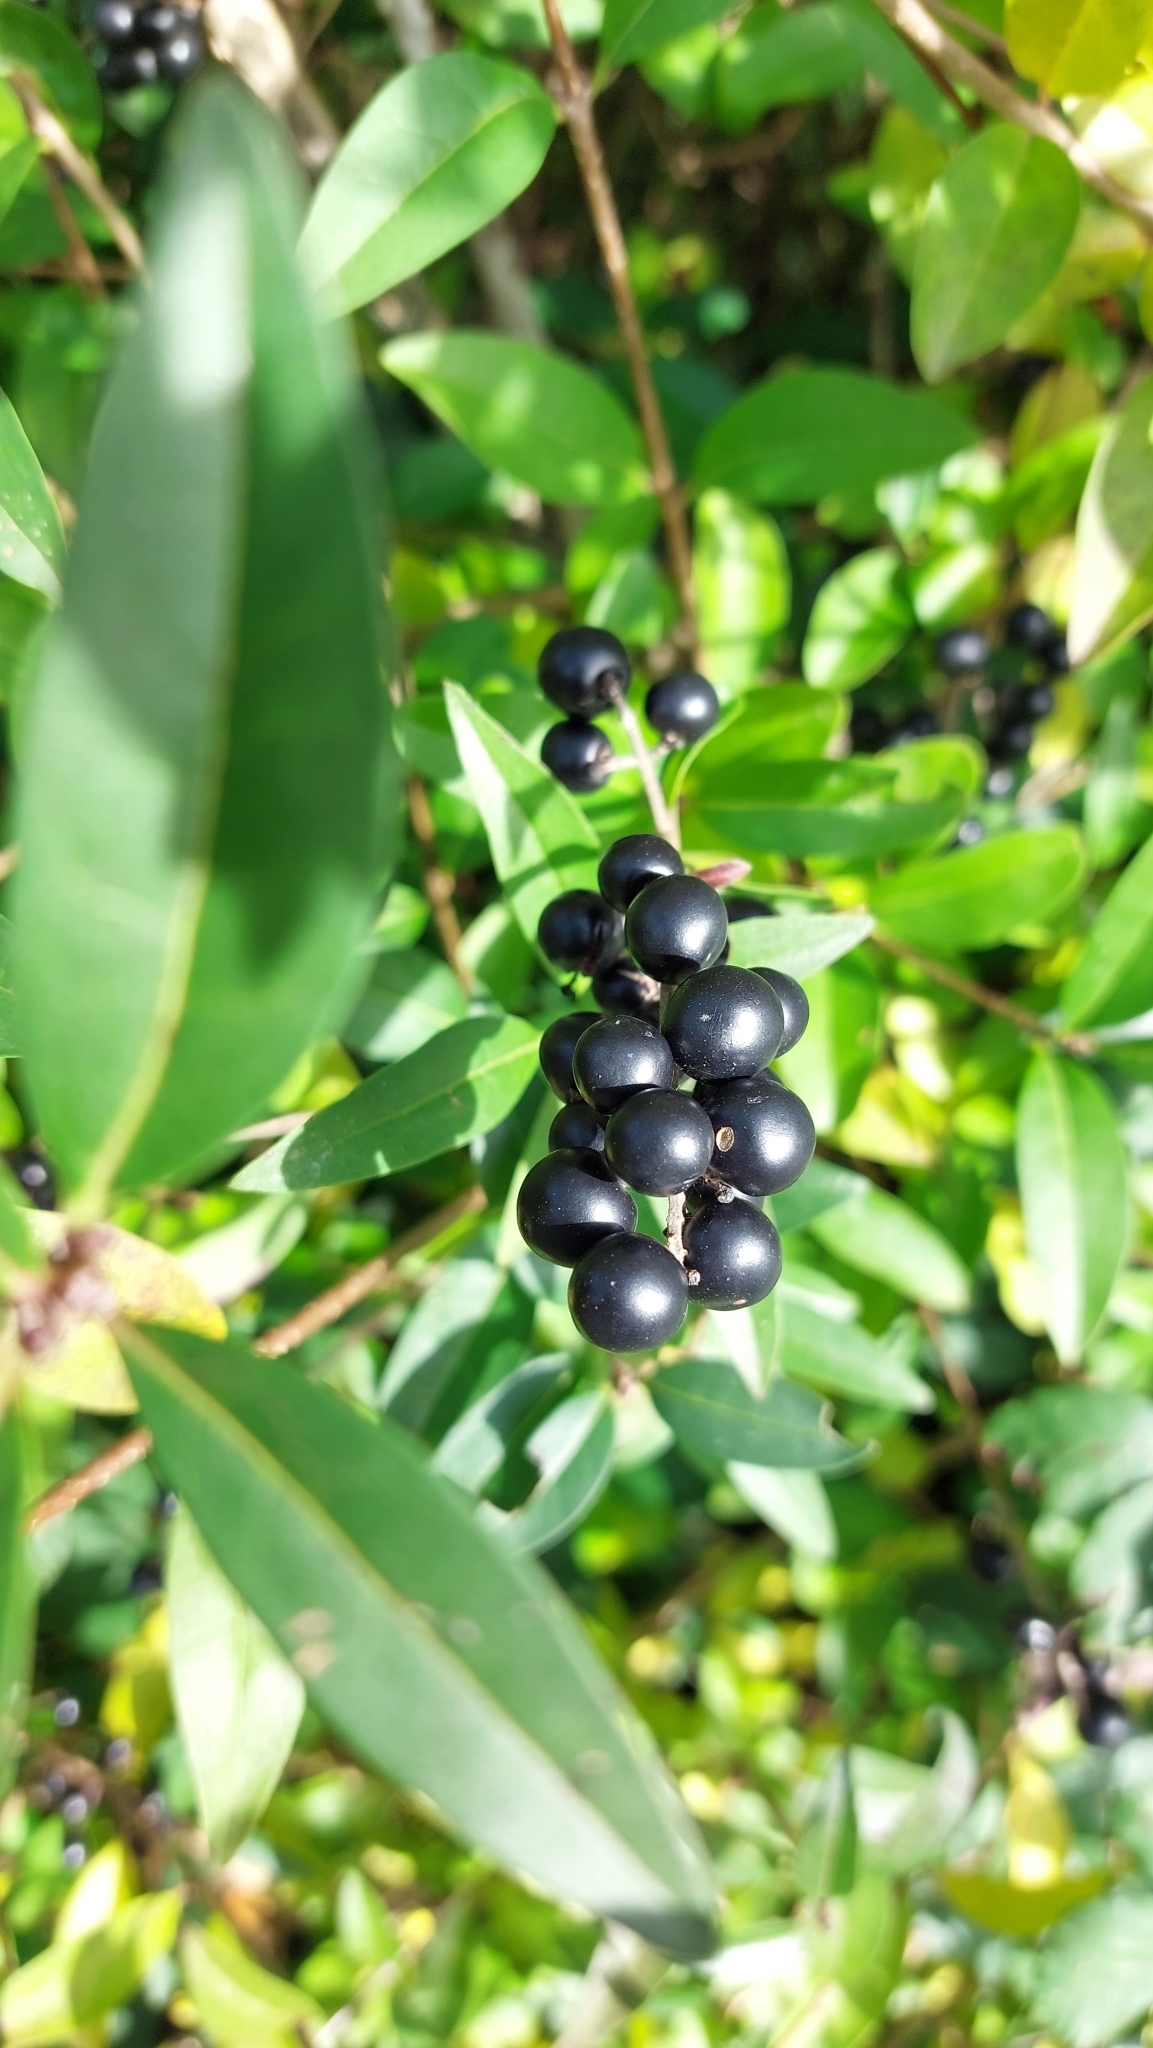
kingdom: Plantae
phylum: Tracheophyta
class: Magnoliopsida
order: Lamiales
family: Oleaceae
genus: Ligustrum
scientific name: Ligustrum vulgare
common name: Wild privet
